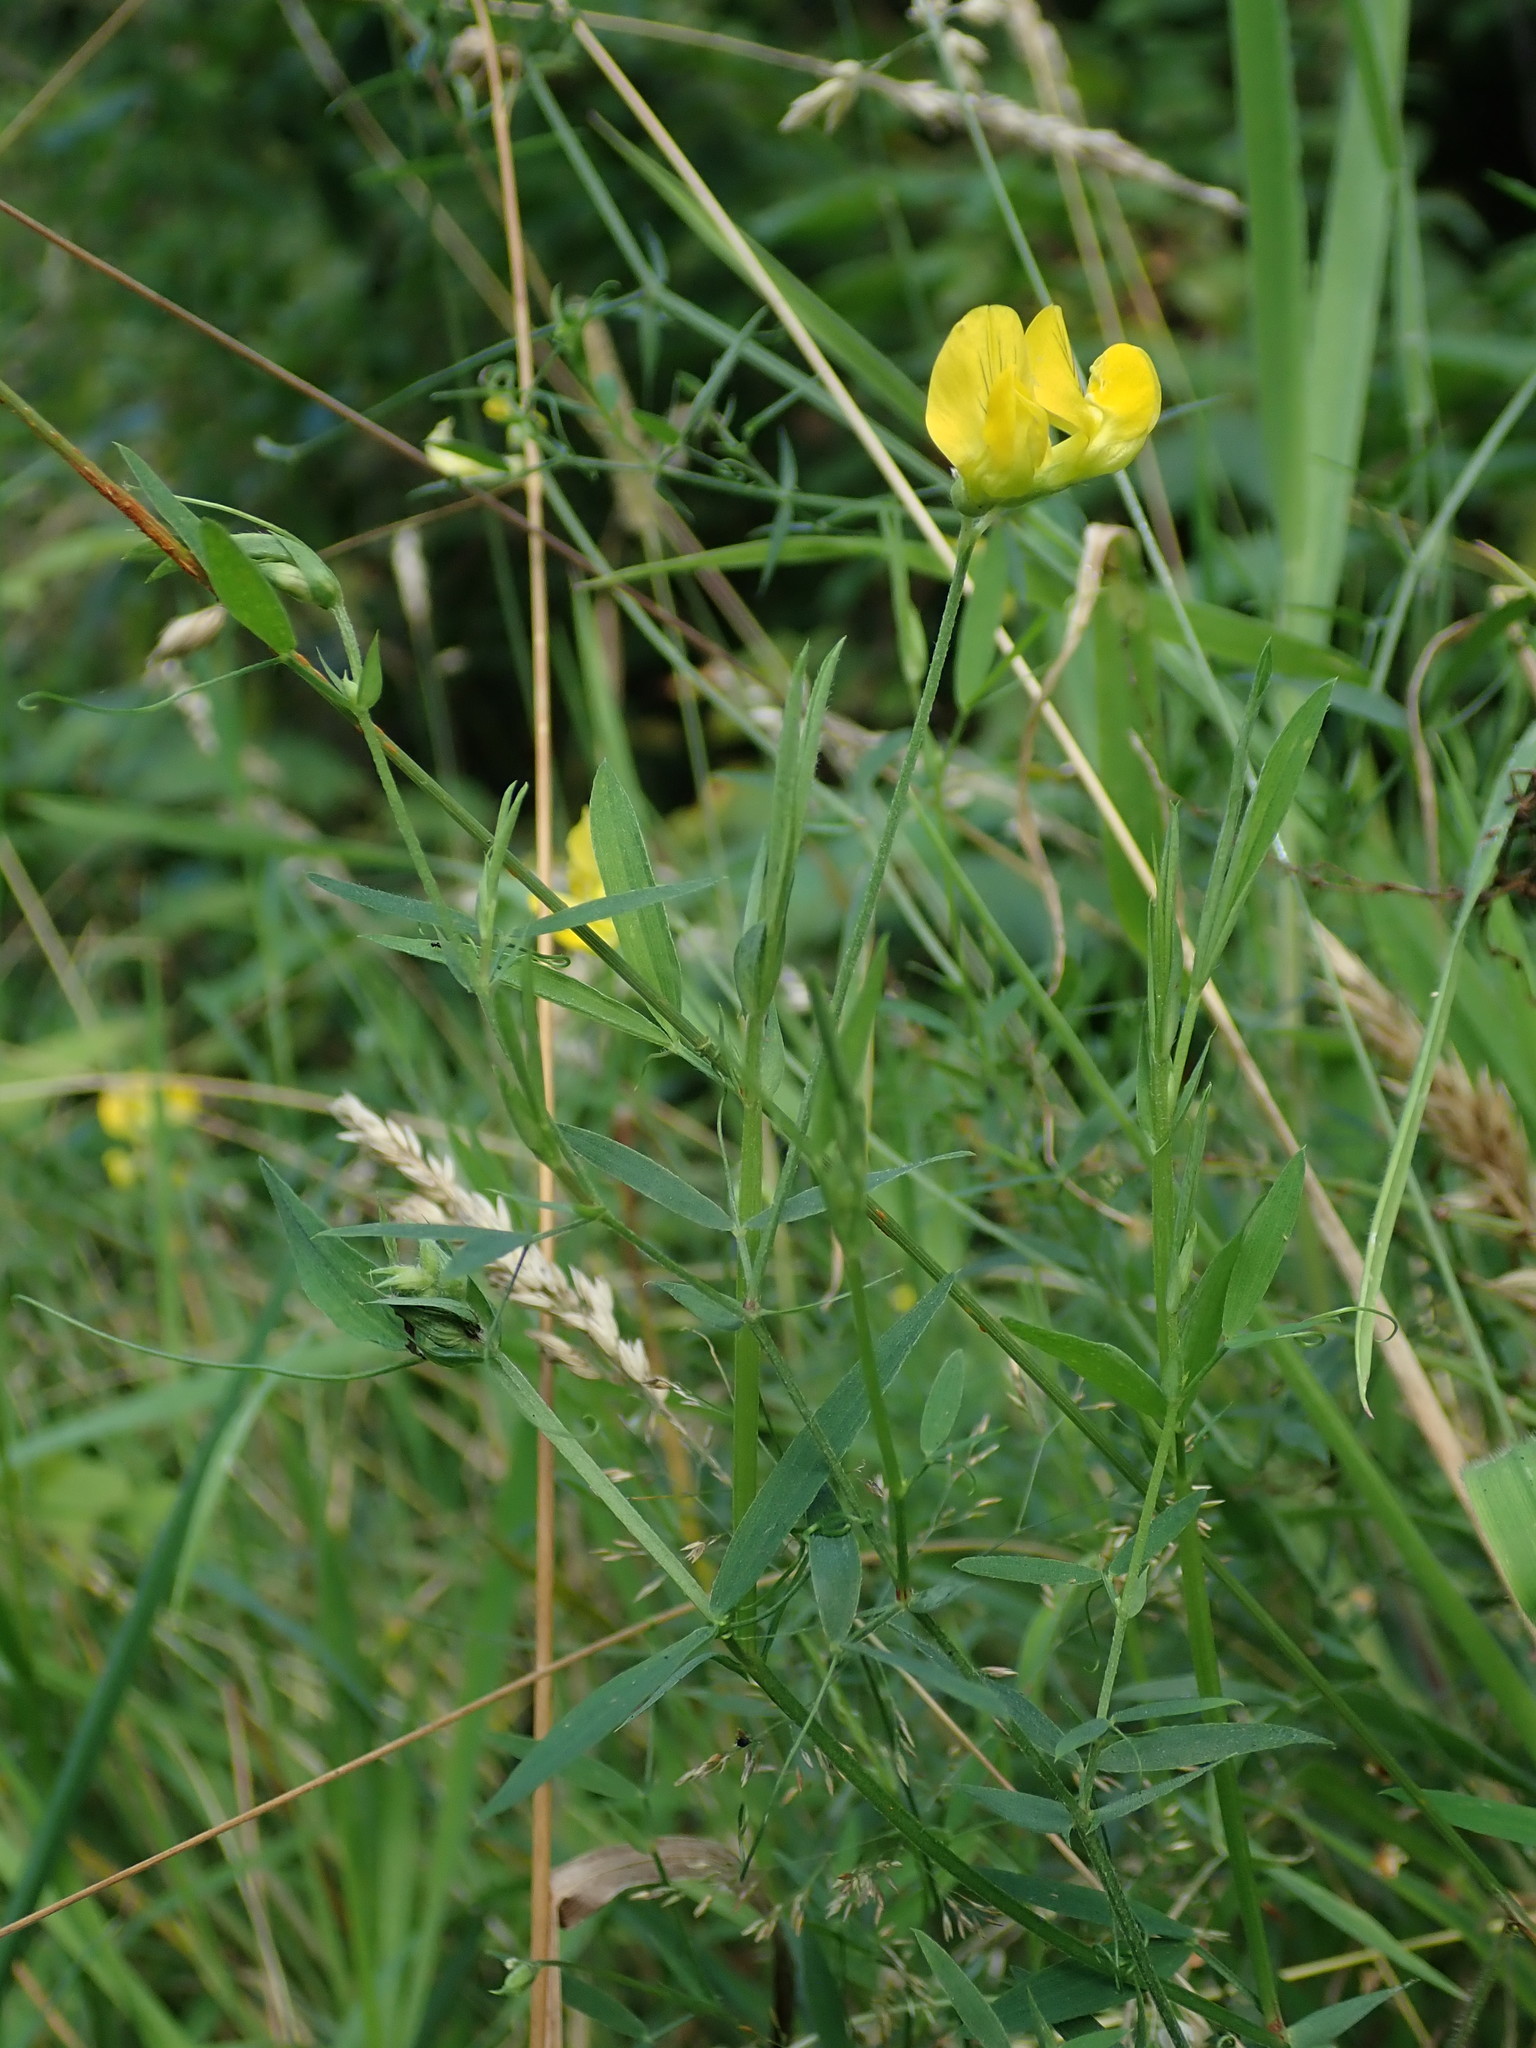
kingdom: Plantae
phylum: Tracheophyta
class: Magnoliopsida
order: Fabales
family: Fabaceae
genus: Lathyrus
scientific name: Lathyrus pratensis
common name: Meadow vetchling
